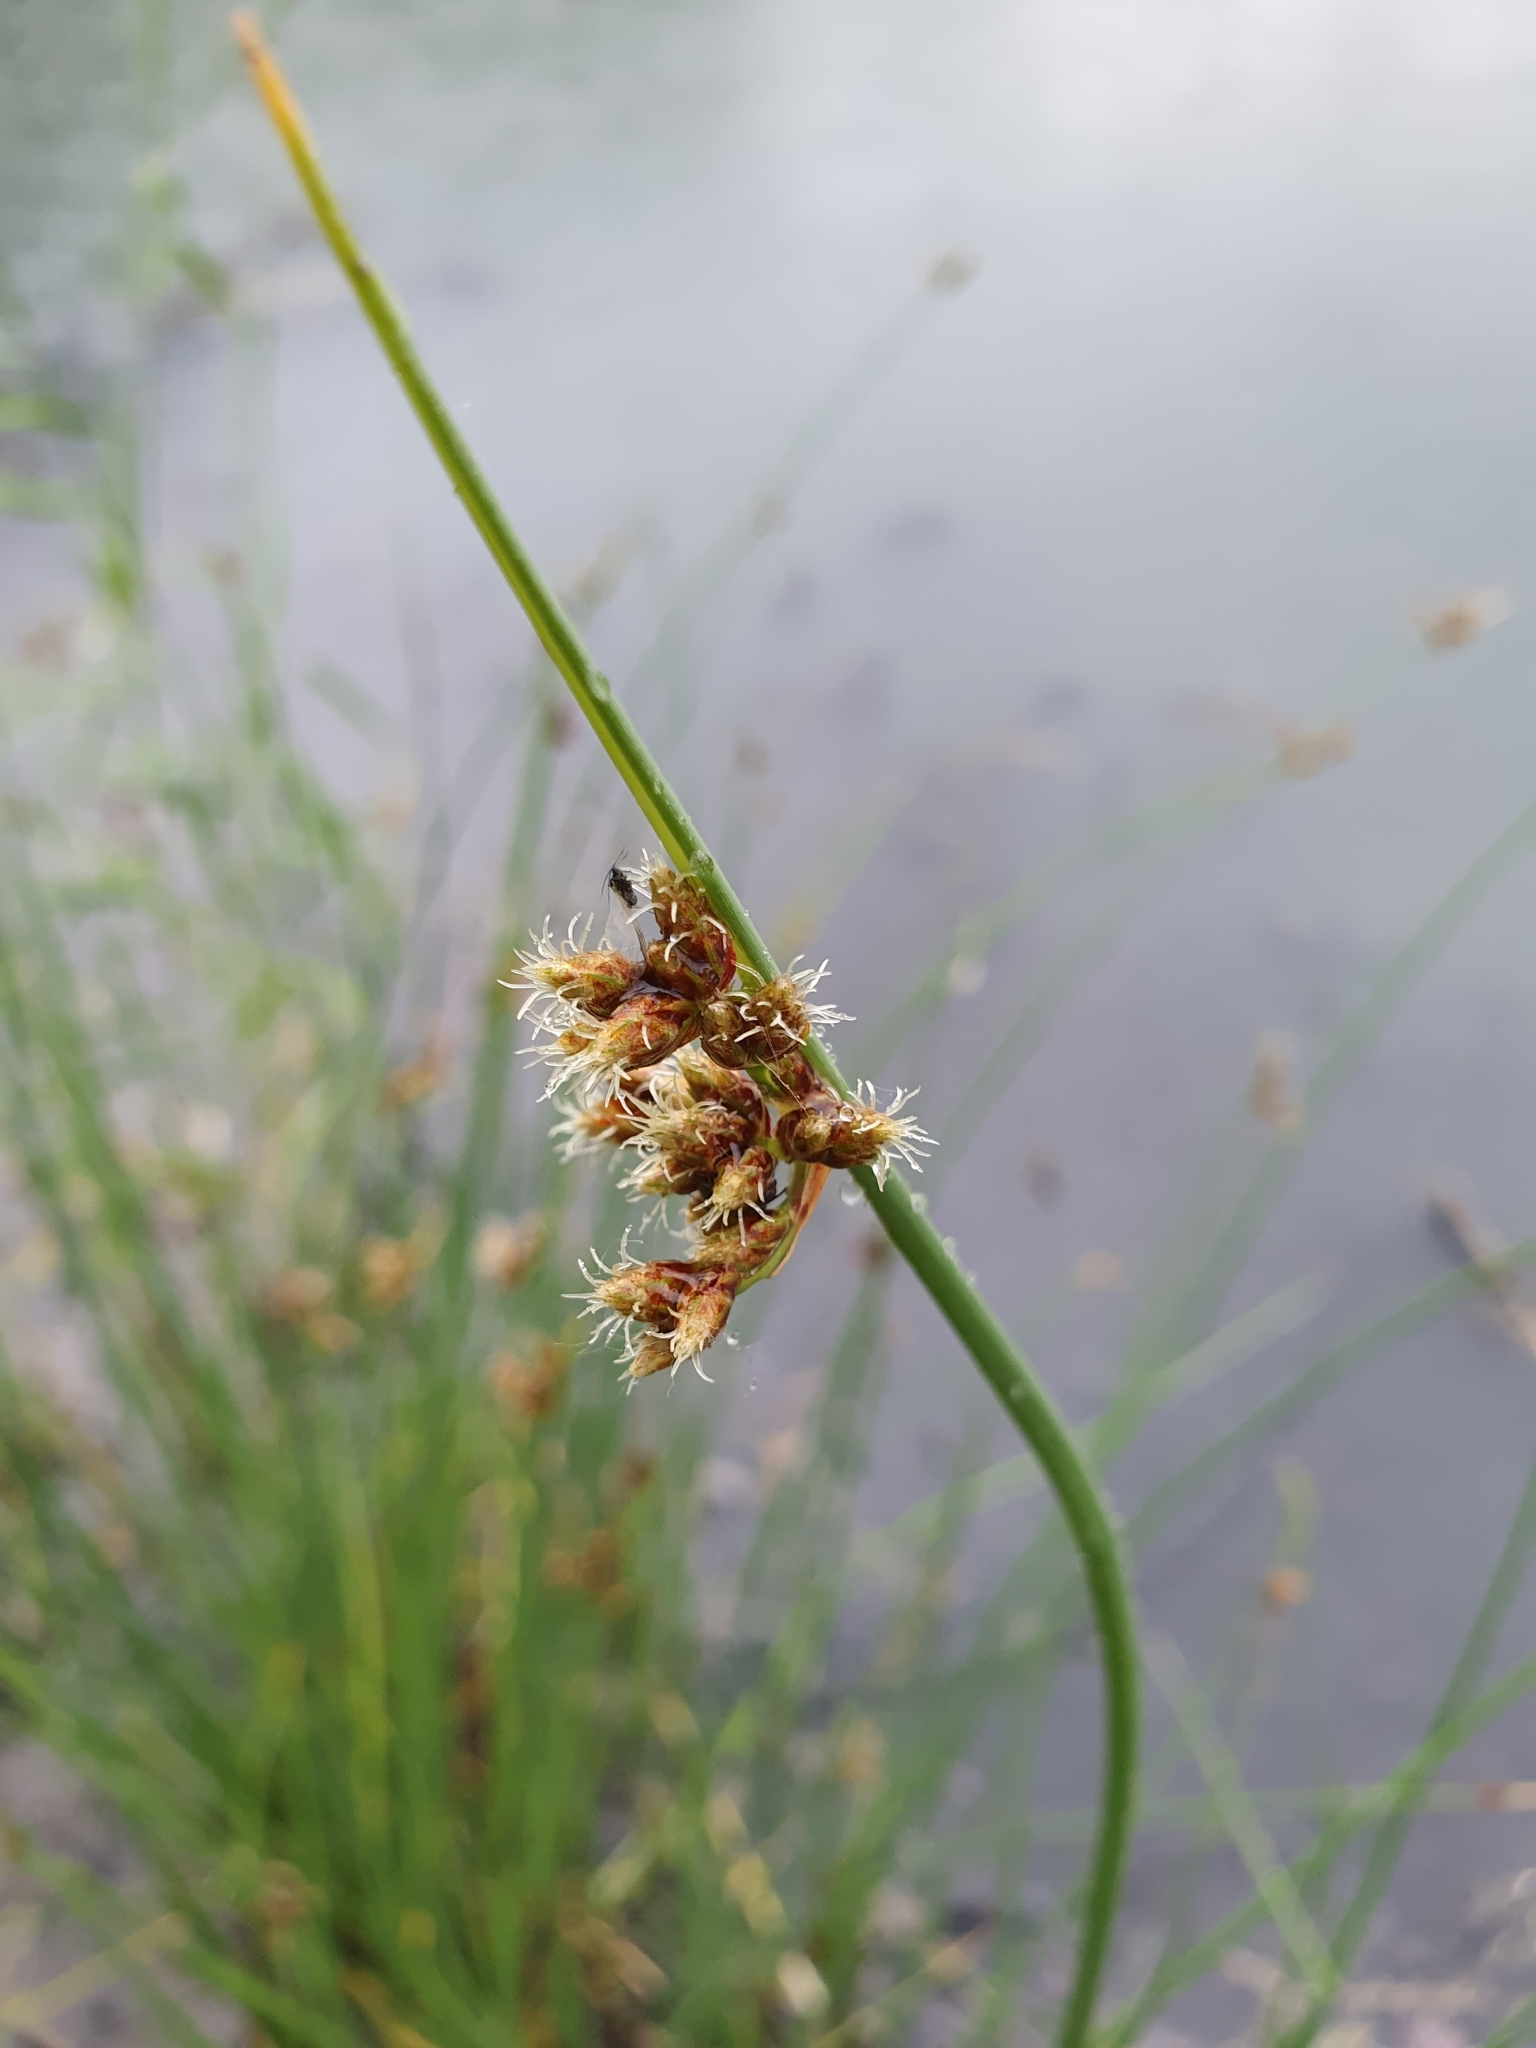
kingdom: Plantae
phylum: Tracheophyta
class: Liliopsida
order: Poales
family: Cyperaceae
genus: Schoenoplectus
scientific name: Schoenoplectus tabernaemontani
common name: Grey club-rush
